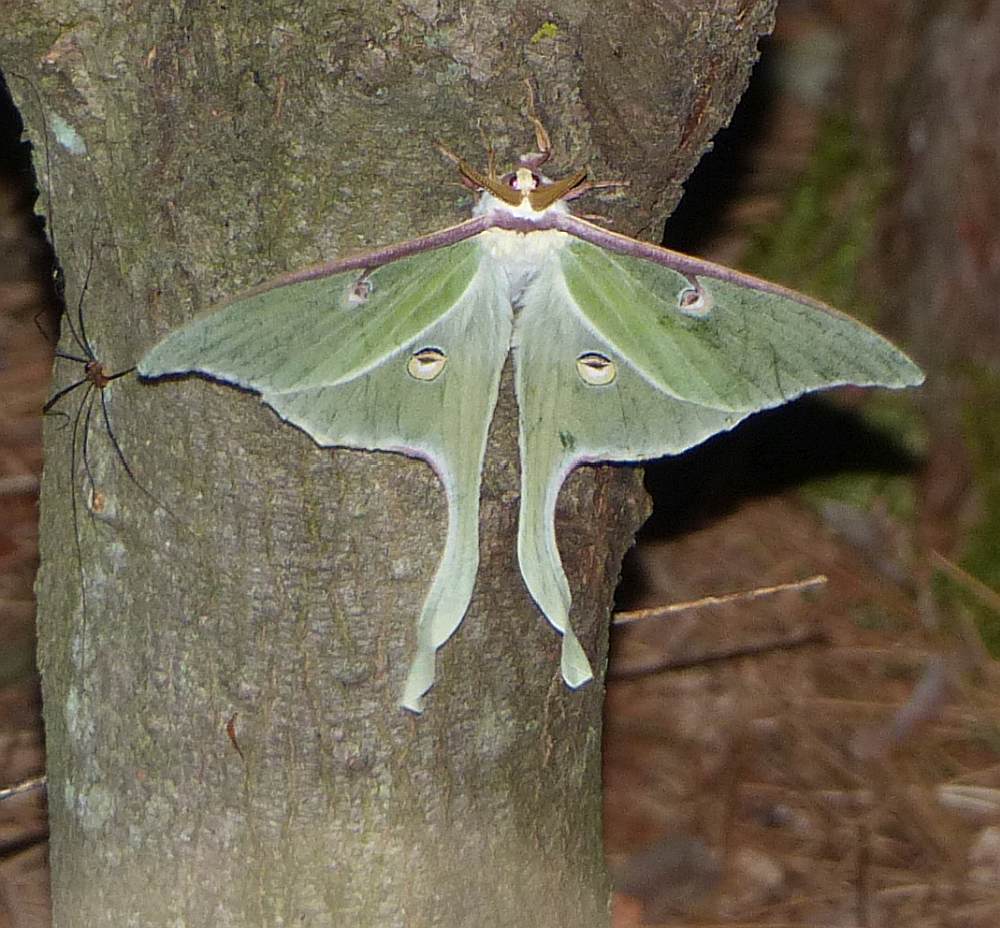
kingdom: Animalia
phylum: Arthropoda
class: Insecta
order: Lepidoptera
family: Saturniidae
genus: Actias
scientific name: Actias luna
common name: Luna moth
